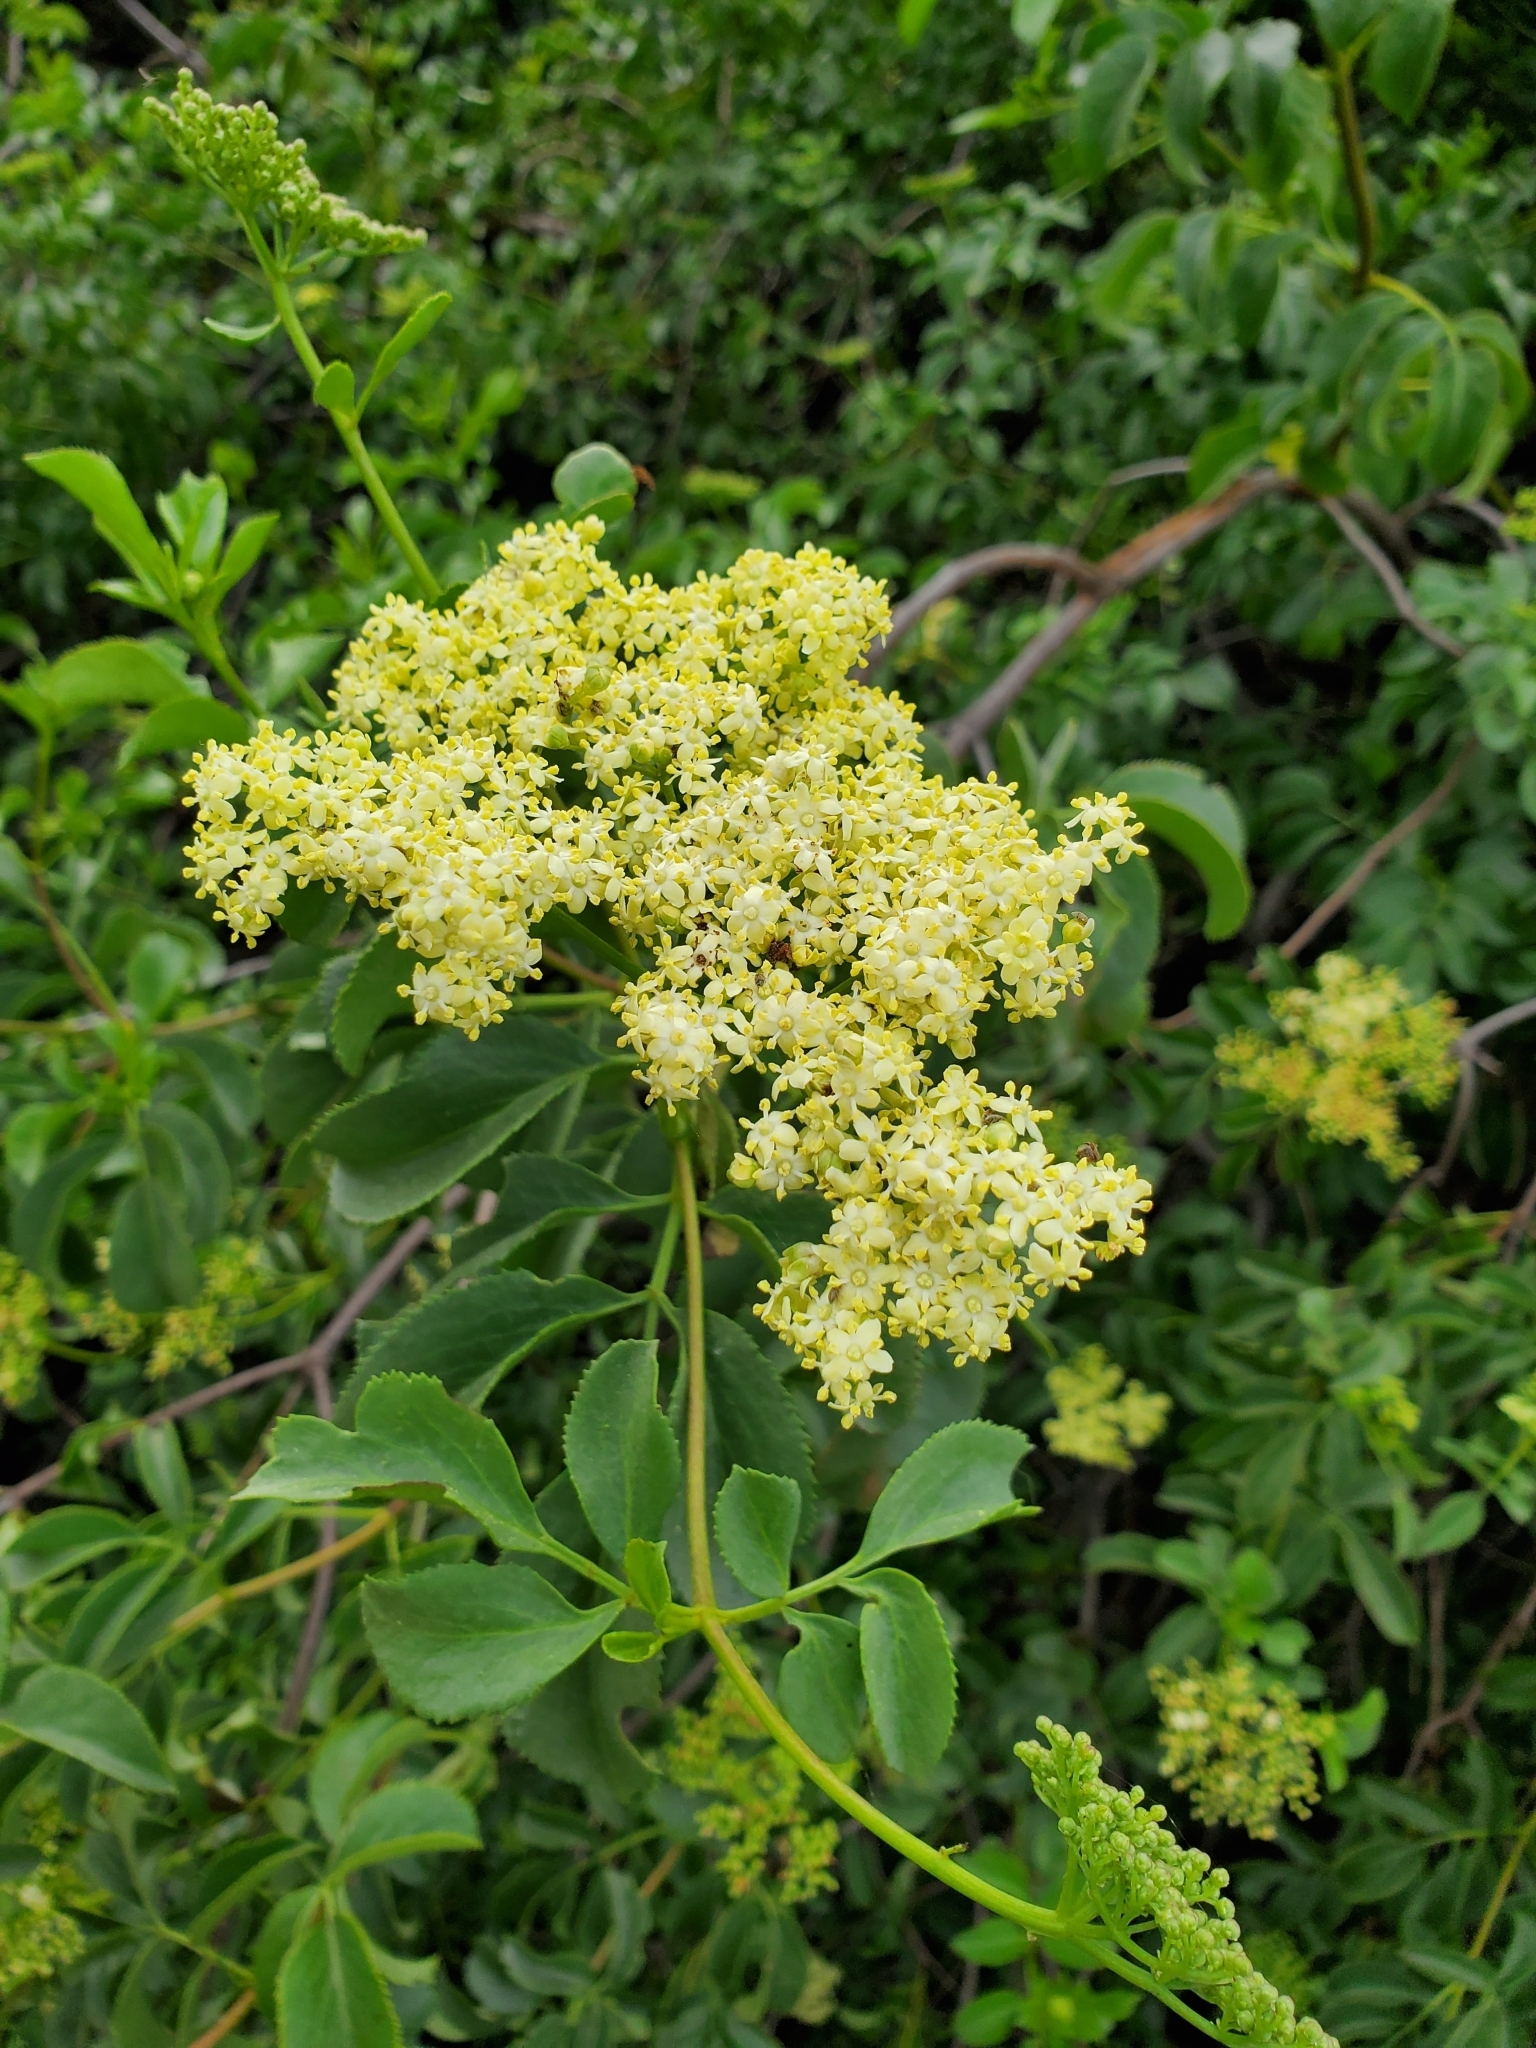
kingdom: Plantae
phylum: Tracheophyta
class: Magnoliopsida
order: Dipsacales
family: Viburnaceae
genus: Sambucus
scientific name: Sambucus cerulea
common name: Blue elder
